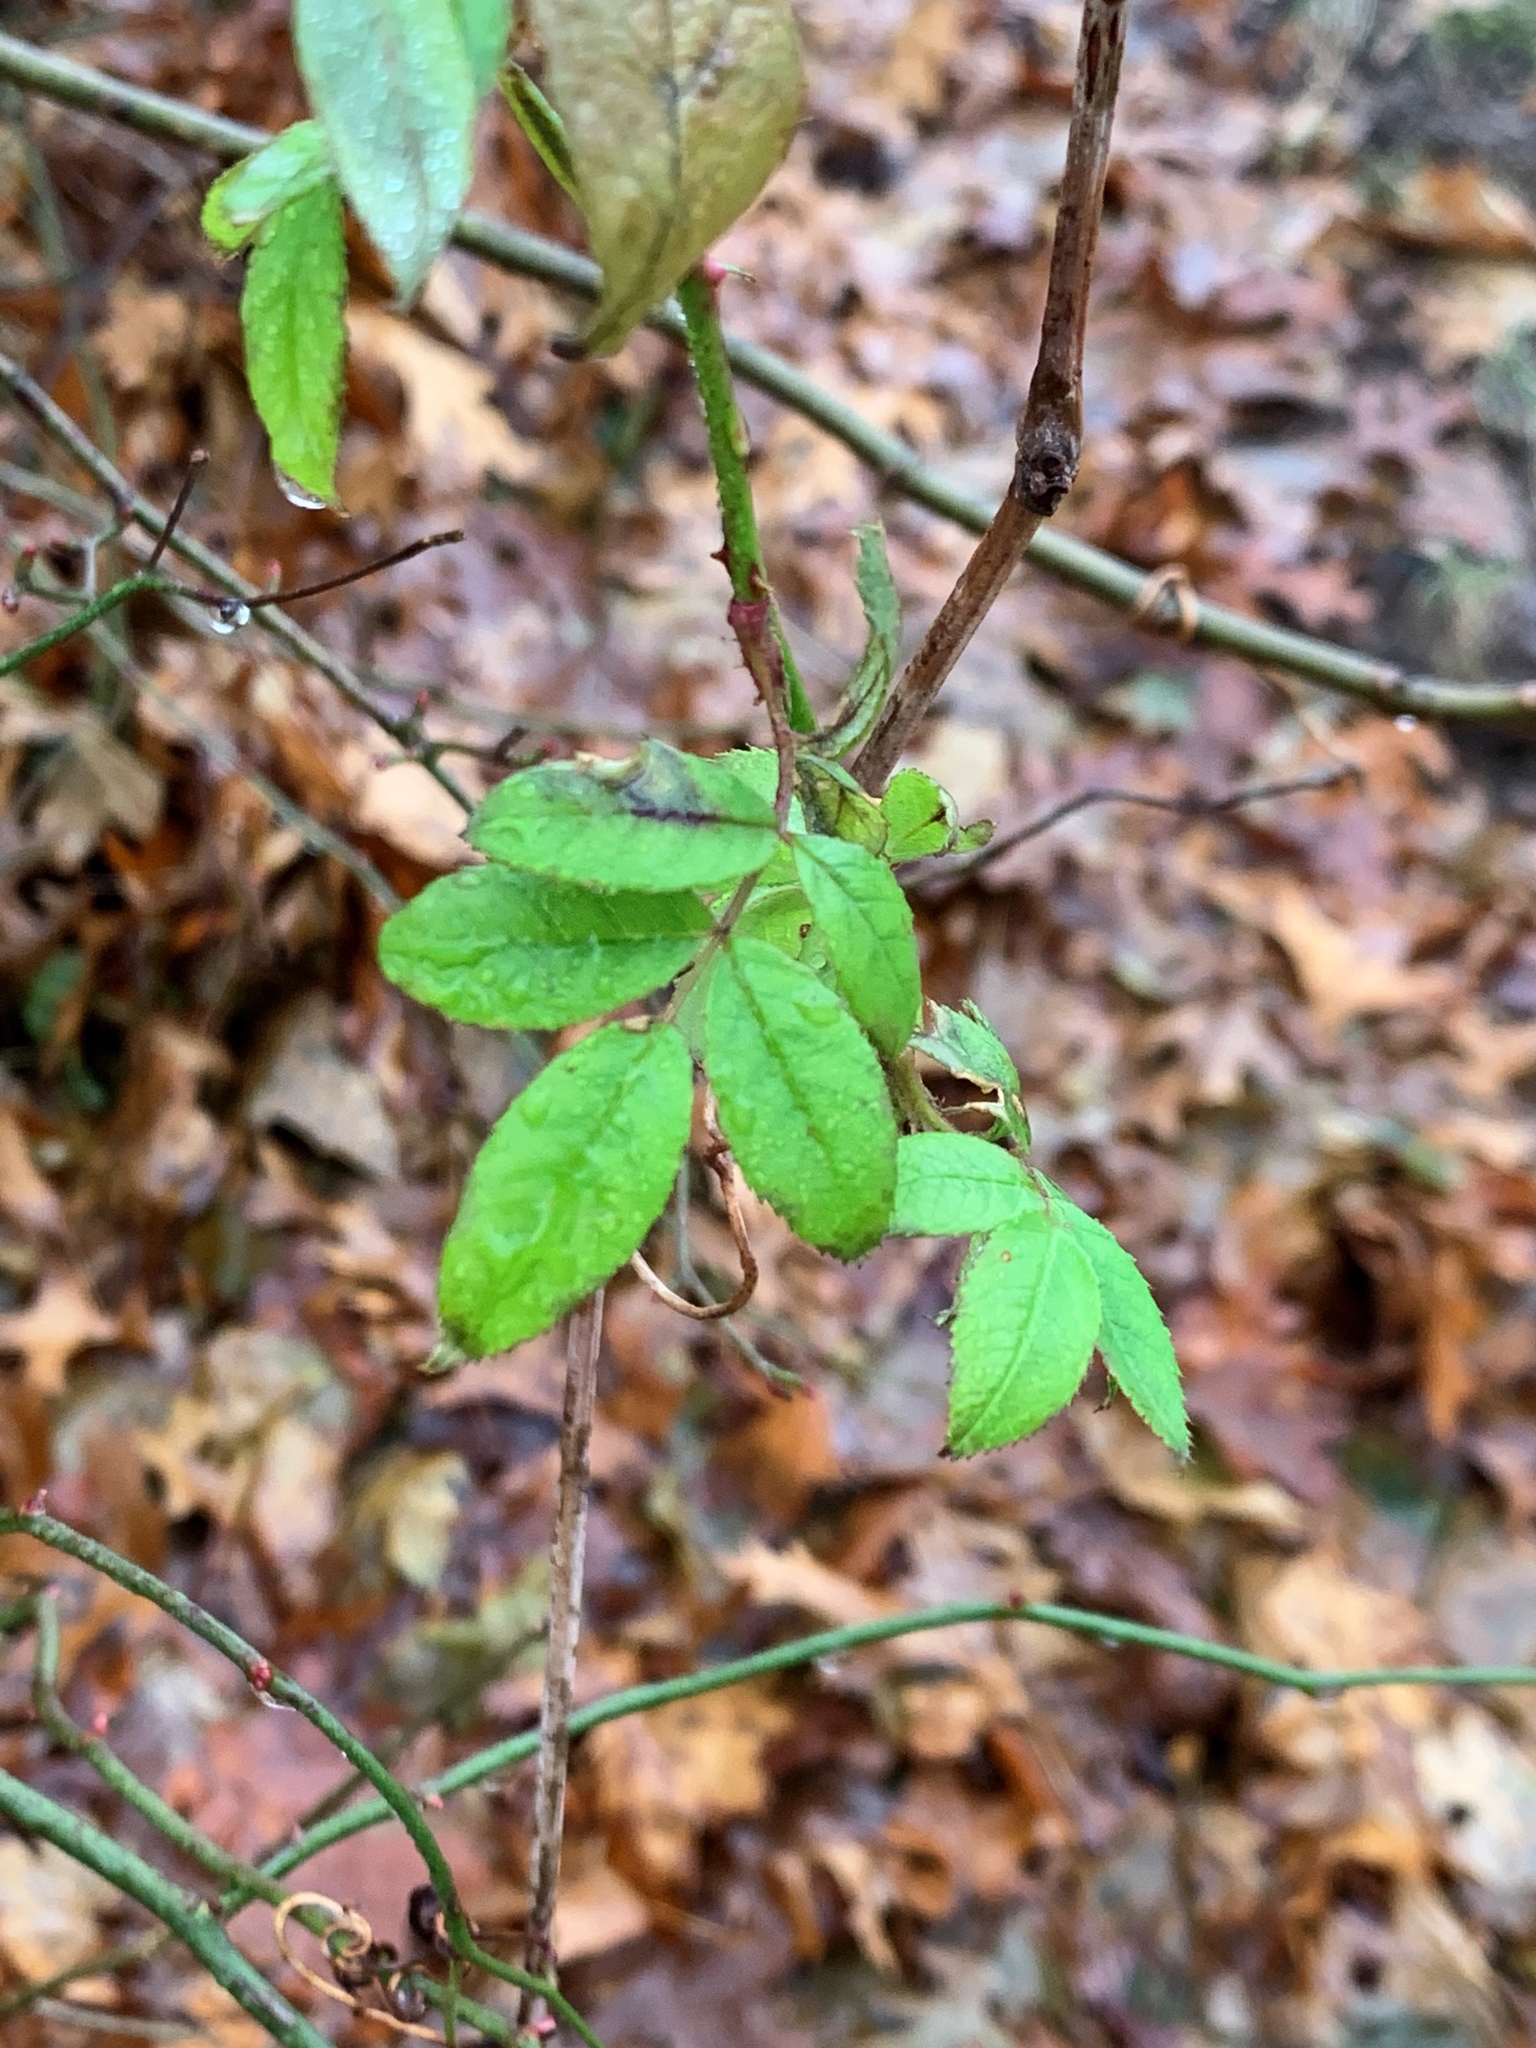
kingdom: Plantae
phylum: Tracheophyta
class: Magnoliopsida
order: Rosales
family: Rosaceae
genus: Rosa
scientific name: Rosa multiflora
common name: Multiflora rose
